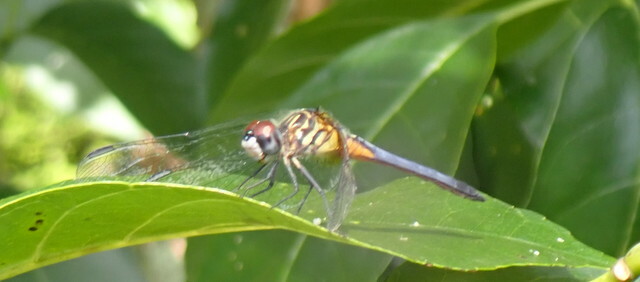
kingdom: Animalia
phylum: Arthropoda
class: Insecta
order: Odonata
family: Libellulidae
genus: Pachydiplax
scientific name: Pachydiplax longipennis
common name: Blue dasher
